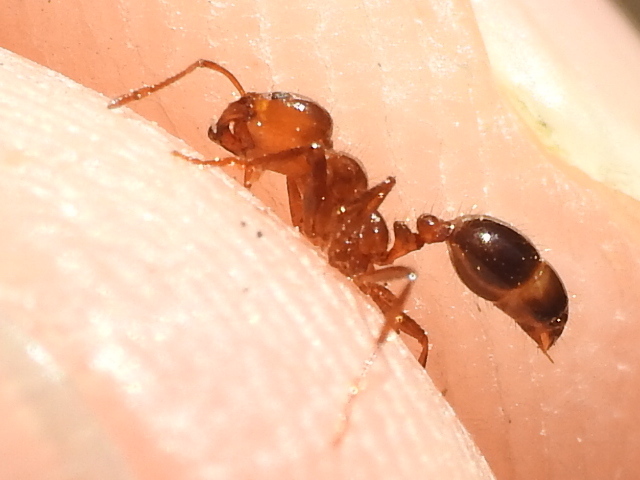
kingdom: Animalia
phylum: Arthropoda
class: Insecta
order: Hymenoptera
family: Formicidae
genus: Solenopsis
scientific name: Solenopsis invicta
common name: Red imported fire ant
